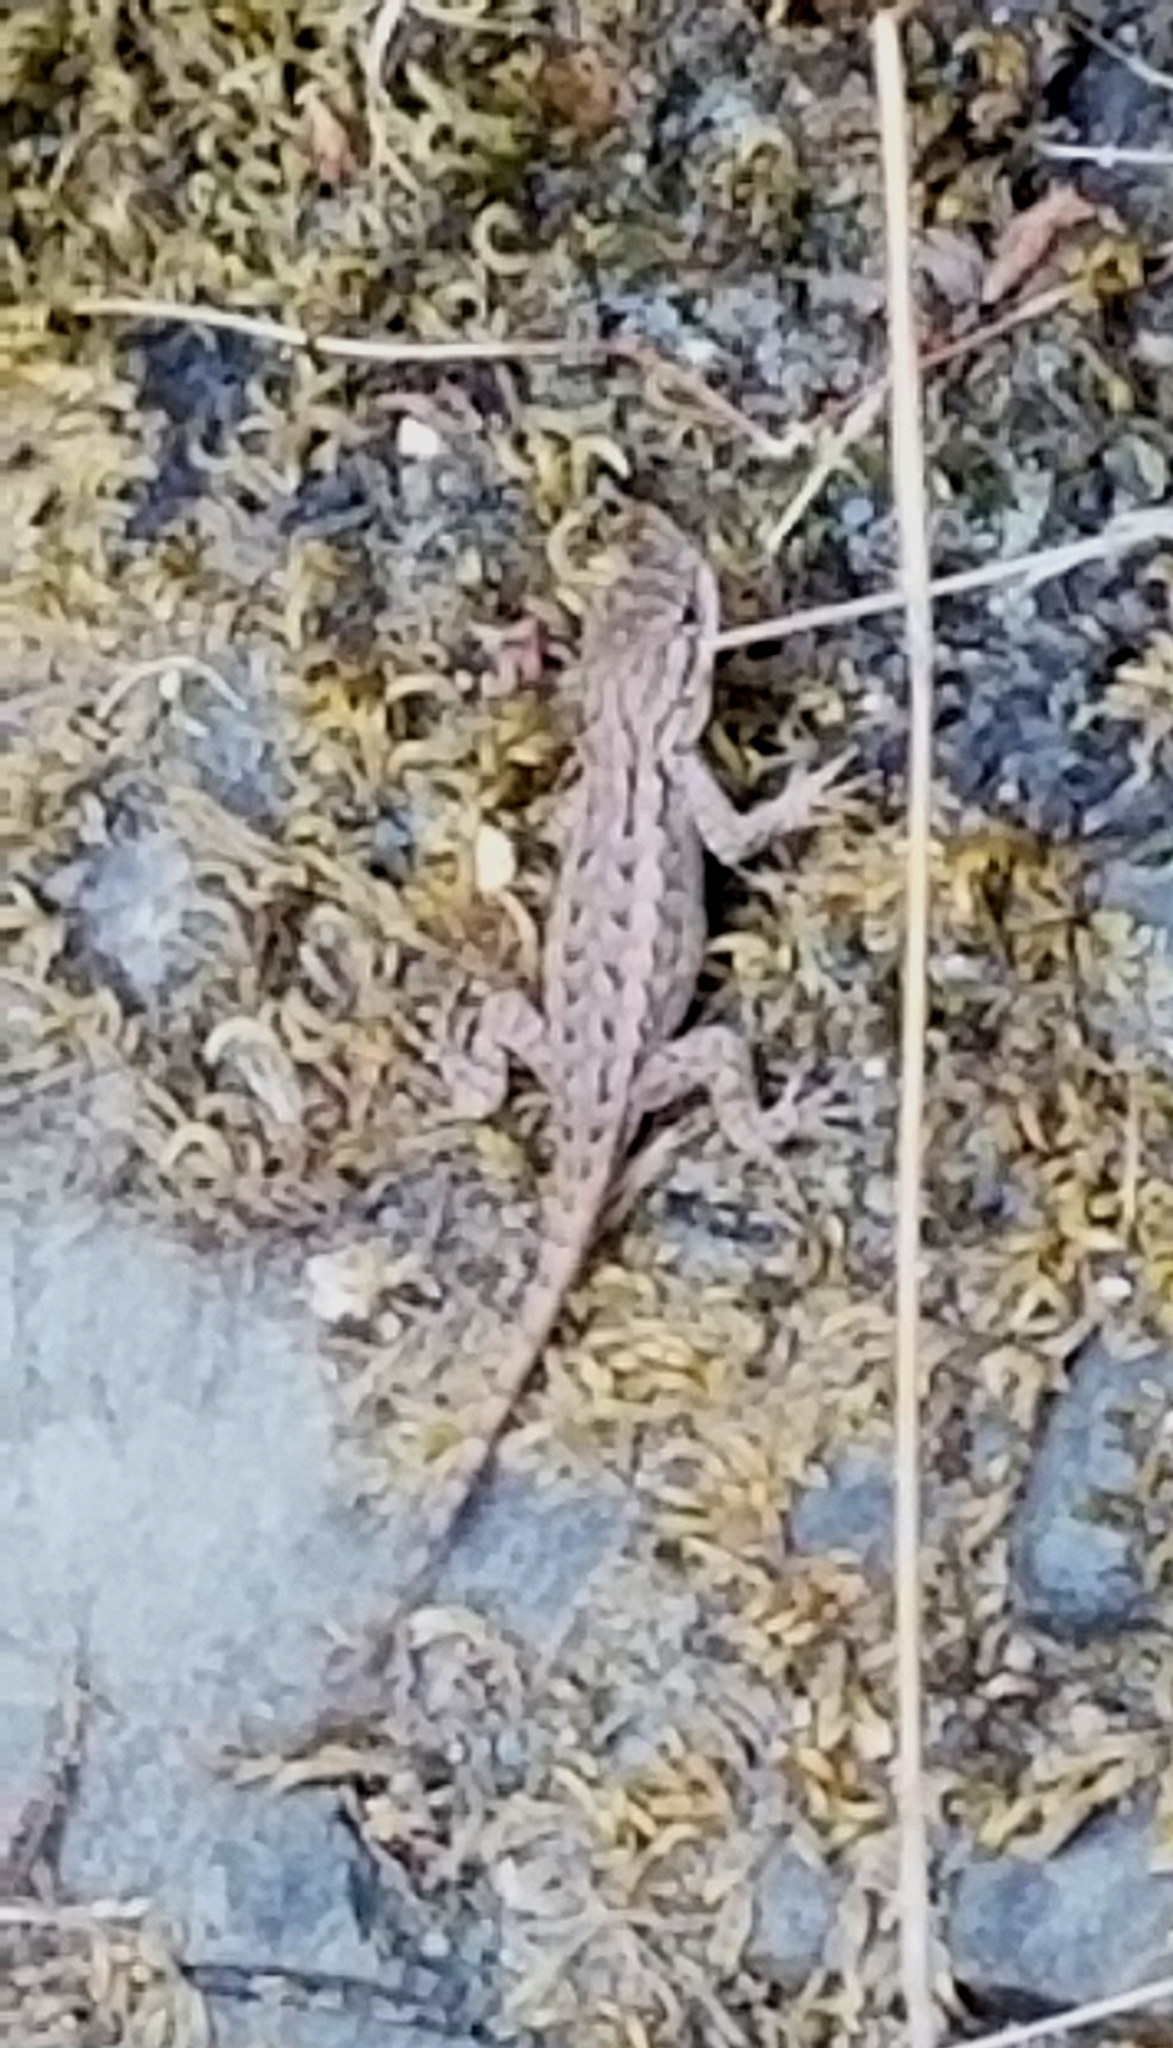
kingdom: Animalia
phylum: Chordata
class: Squamata
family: Phrynosomatidae
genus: Sceloporus
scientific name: Sceloporus occidentalis
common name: Western fence lizard
